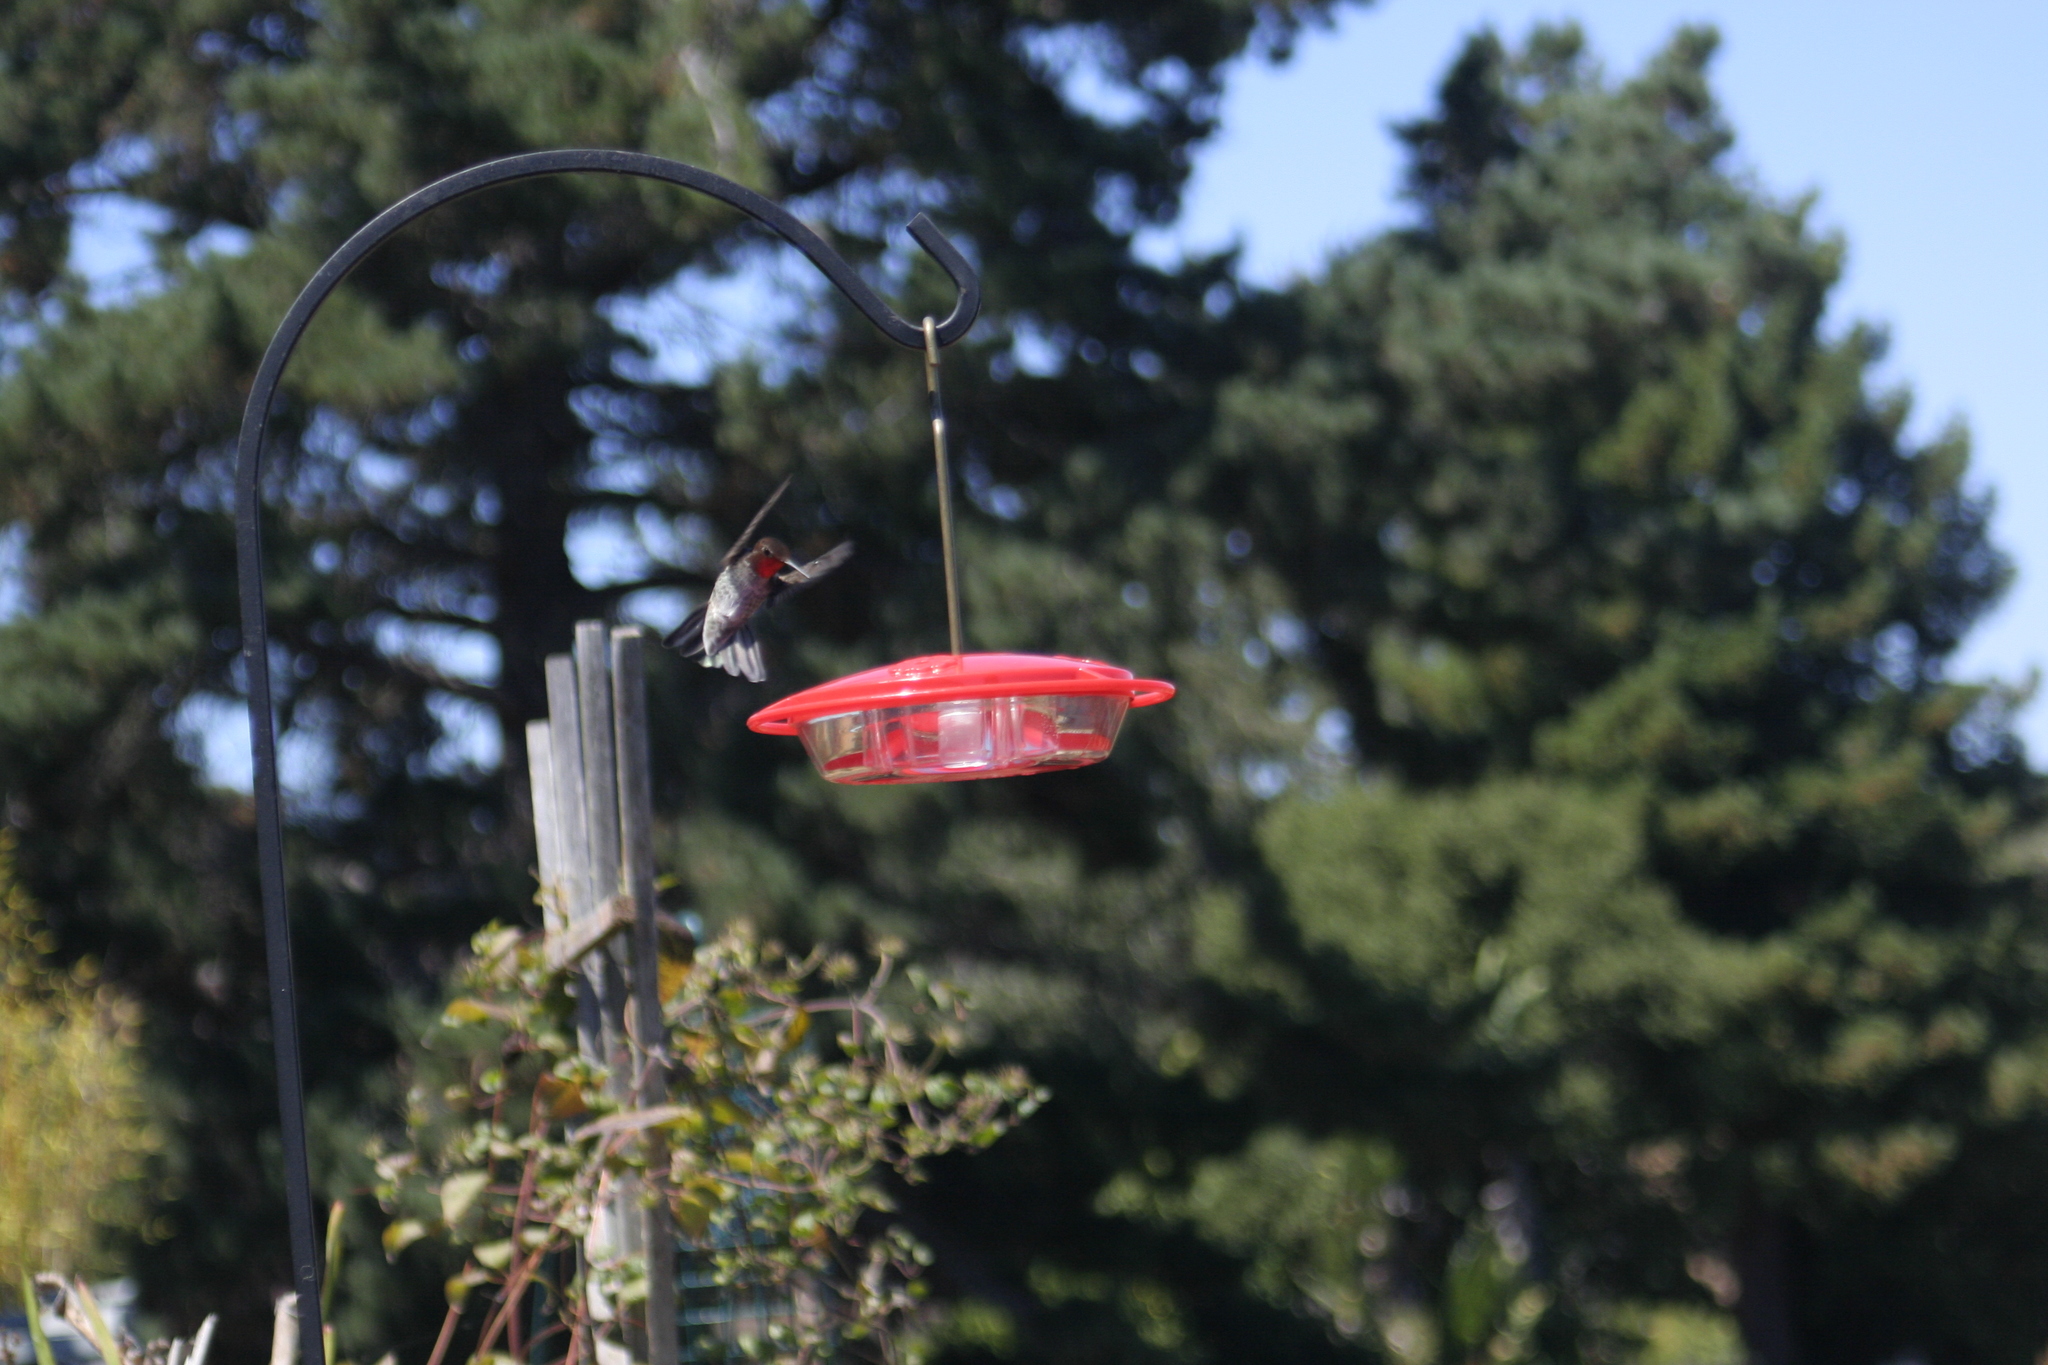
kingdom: Animalia
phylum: Chordata
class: Aves
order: Apodiformes
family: Trochilidae
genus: Calypte
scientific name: Calypte anna
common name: Anna's hummingbird
